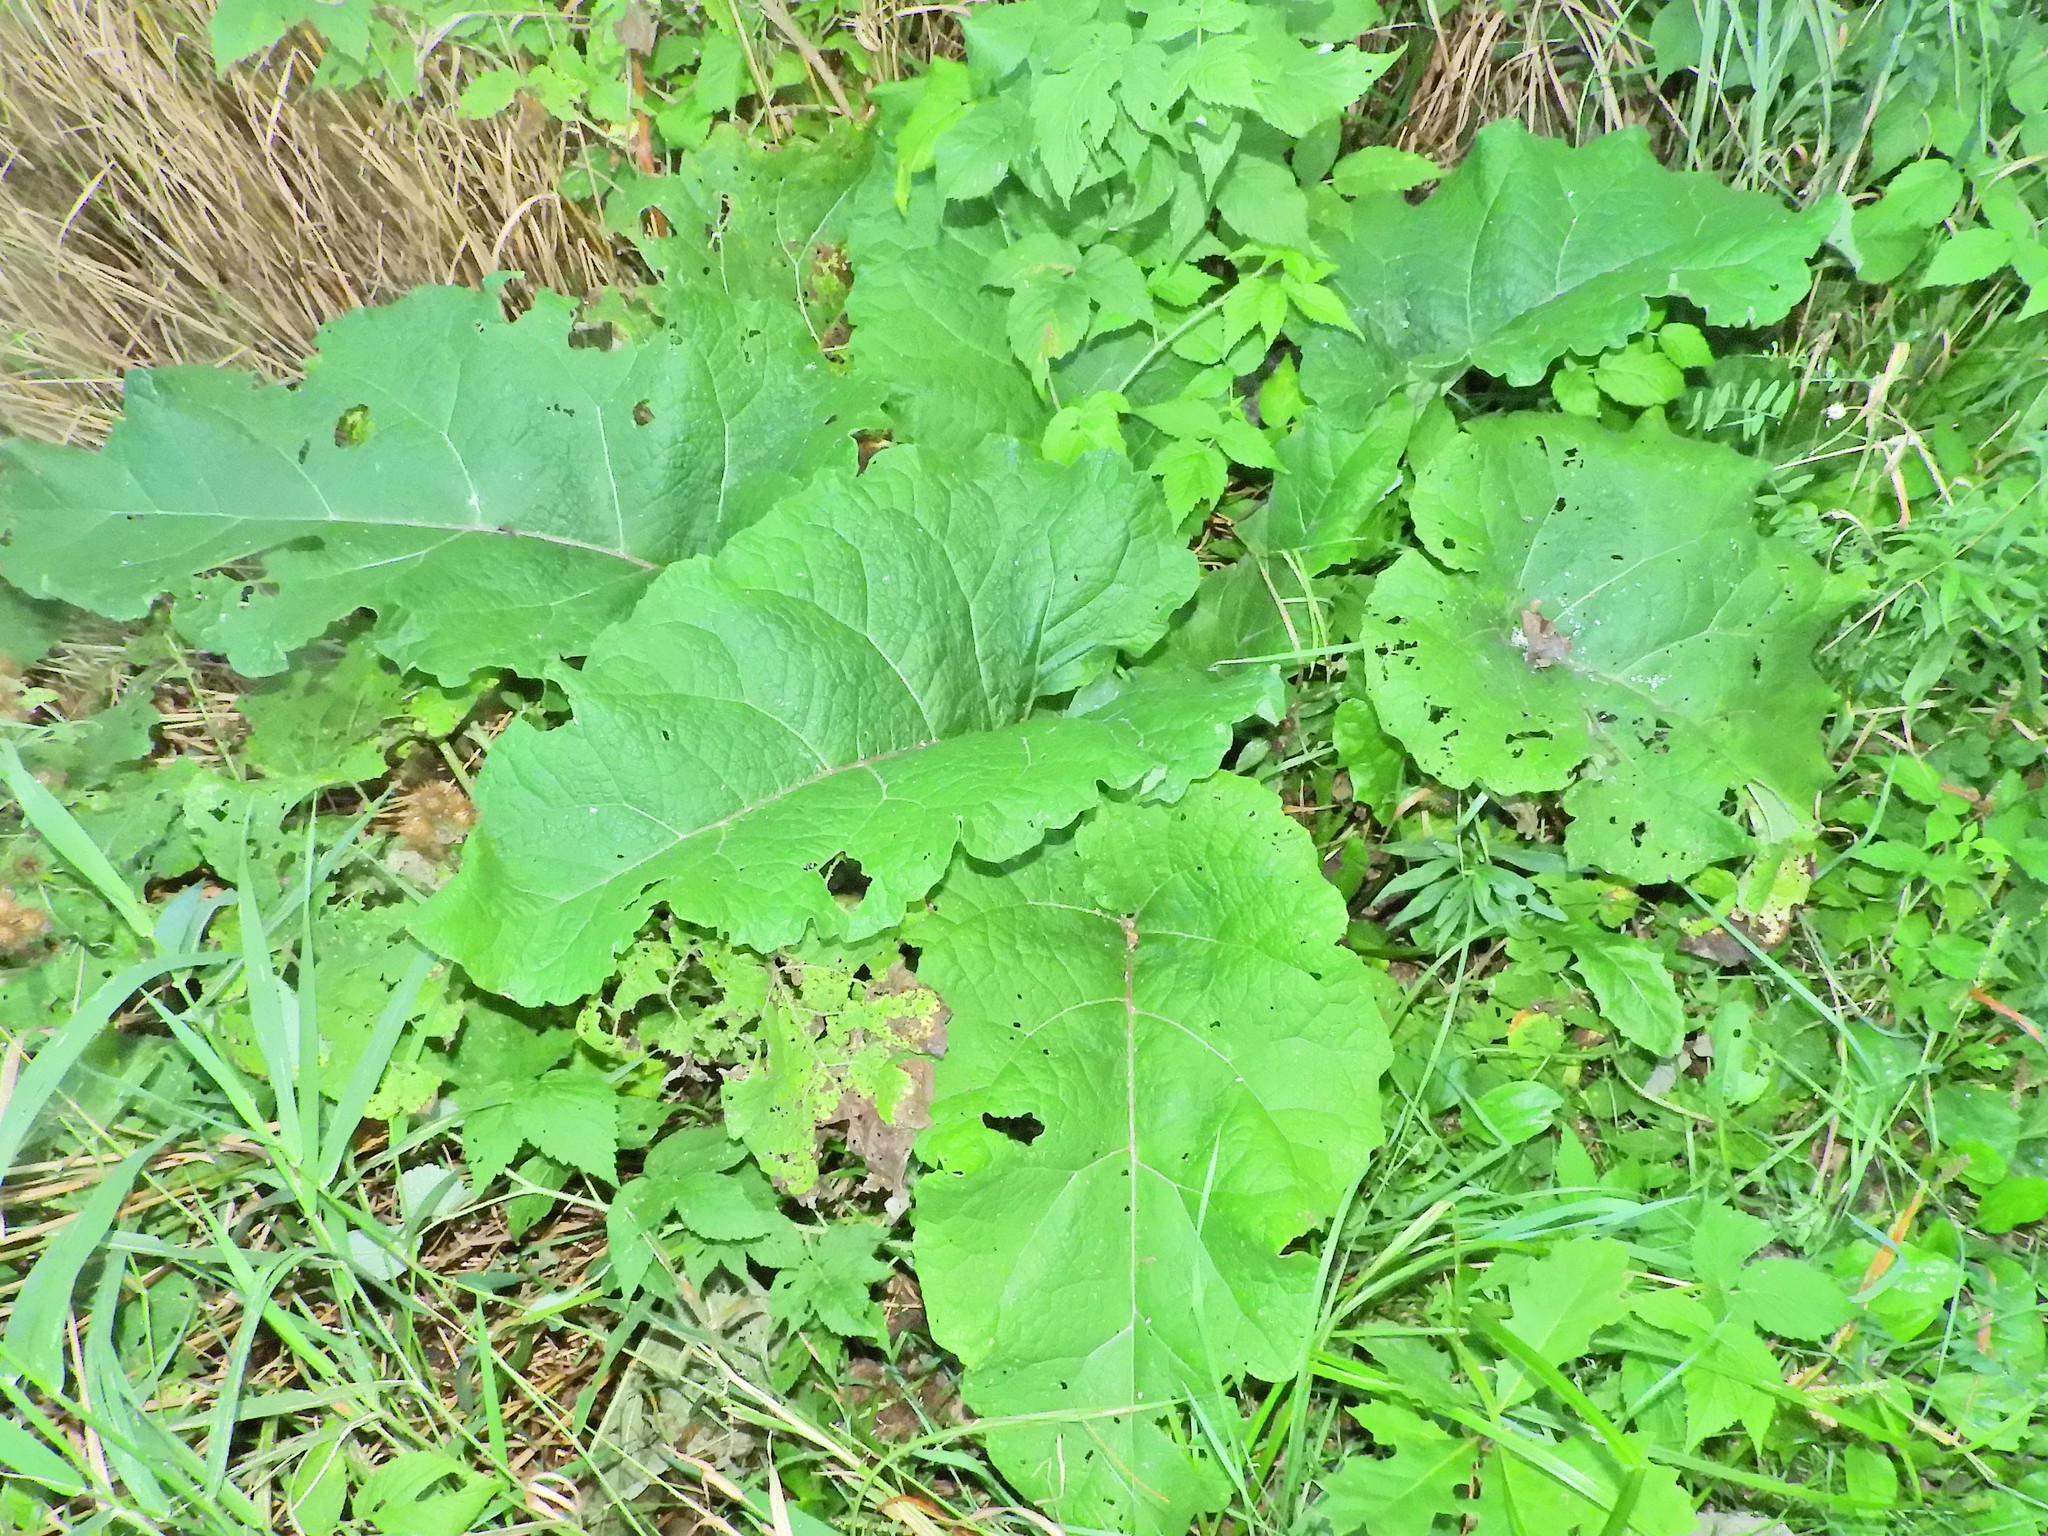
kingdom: Plantae
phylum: Tracheophyta
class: Magnoliopsida
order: Asterales
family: Asteraceae
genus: Arctium
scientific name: Arctium minus
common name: Lesser burdock
